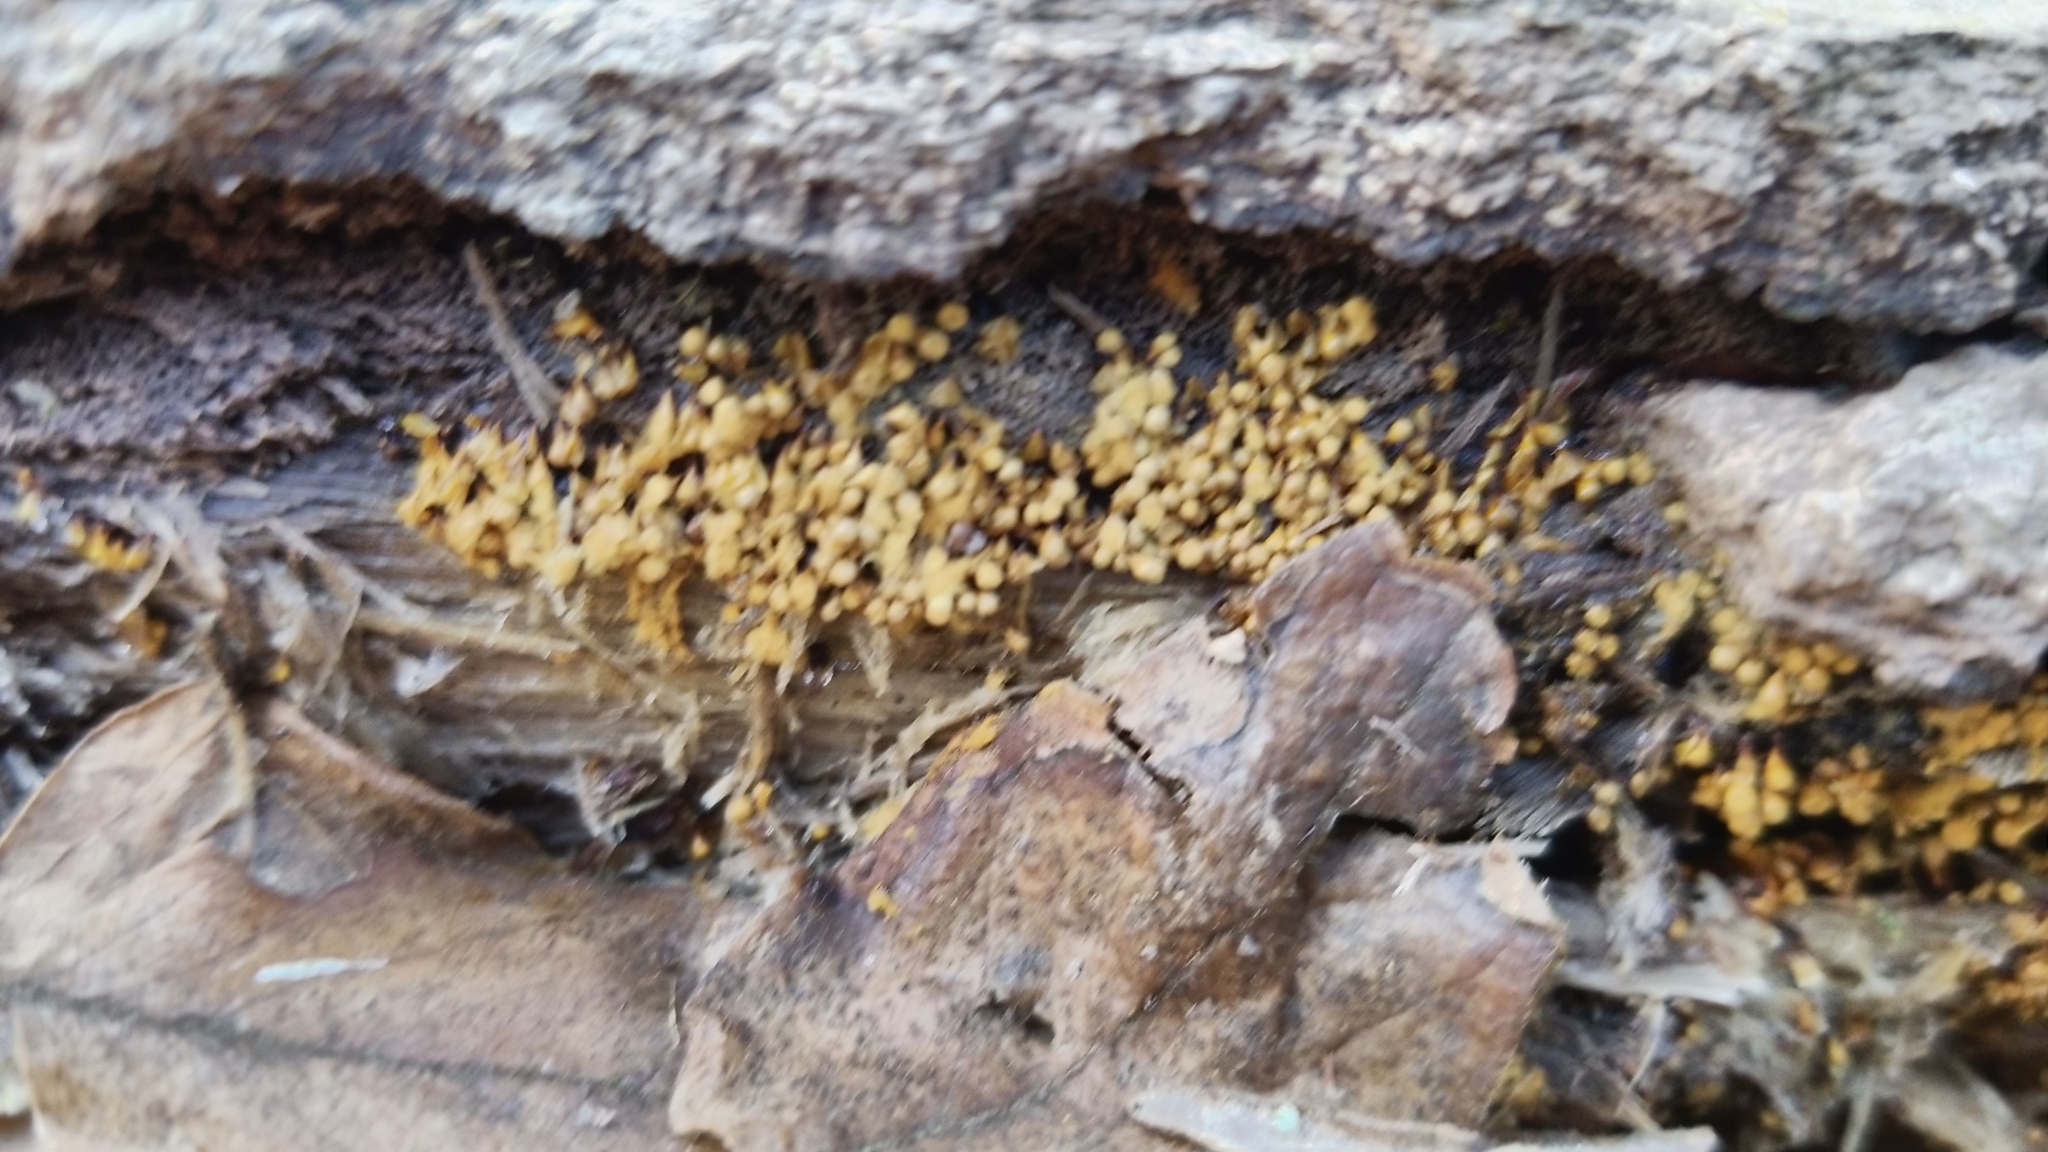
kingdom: Protozoa
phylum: Mycetozoa
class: Myxomycetes
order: Trichiales
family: Arcyriaceae
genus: Hemitrichia
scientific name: Hemitrichia calyculata
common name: Push pin slime mold
